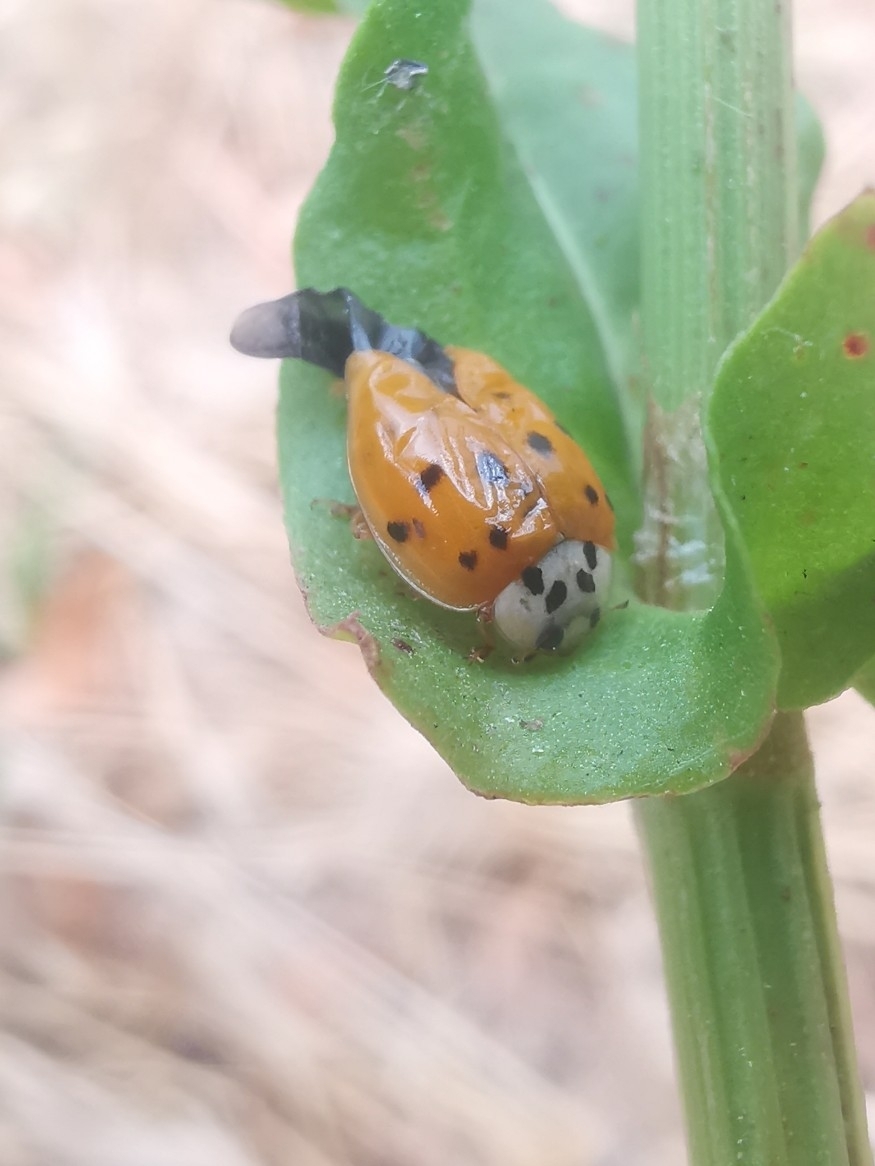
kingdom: Animalia
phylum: Arthropoda
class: Insecta
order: Coleoptera
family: Coccinellidae
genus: Harmonia
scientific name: Harmonia axyridis
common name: Harlequin ladybird
